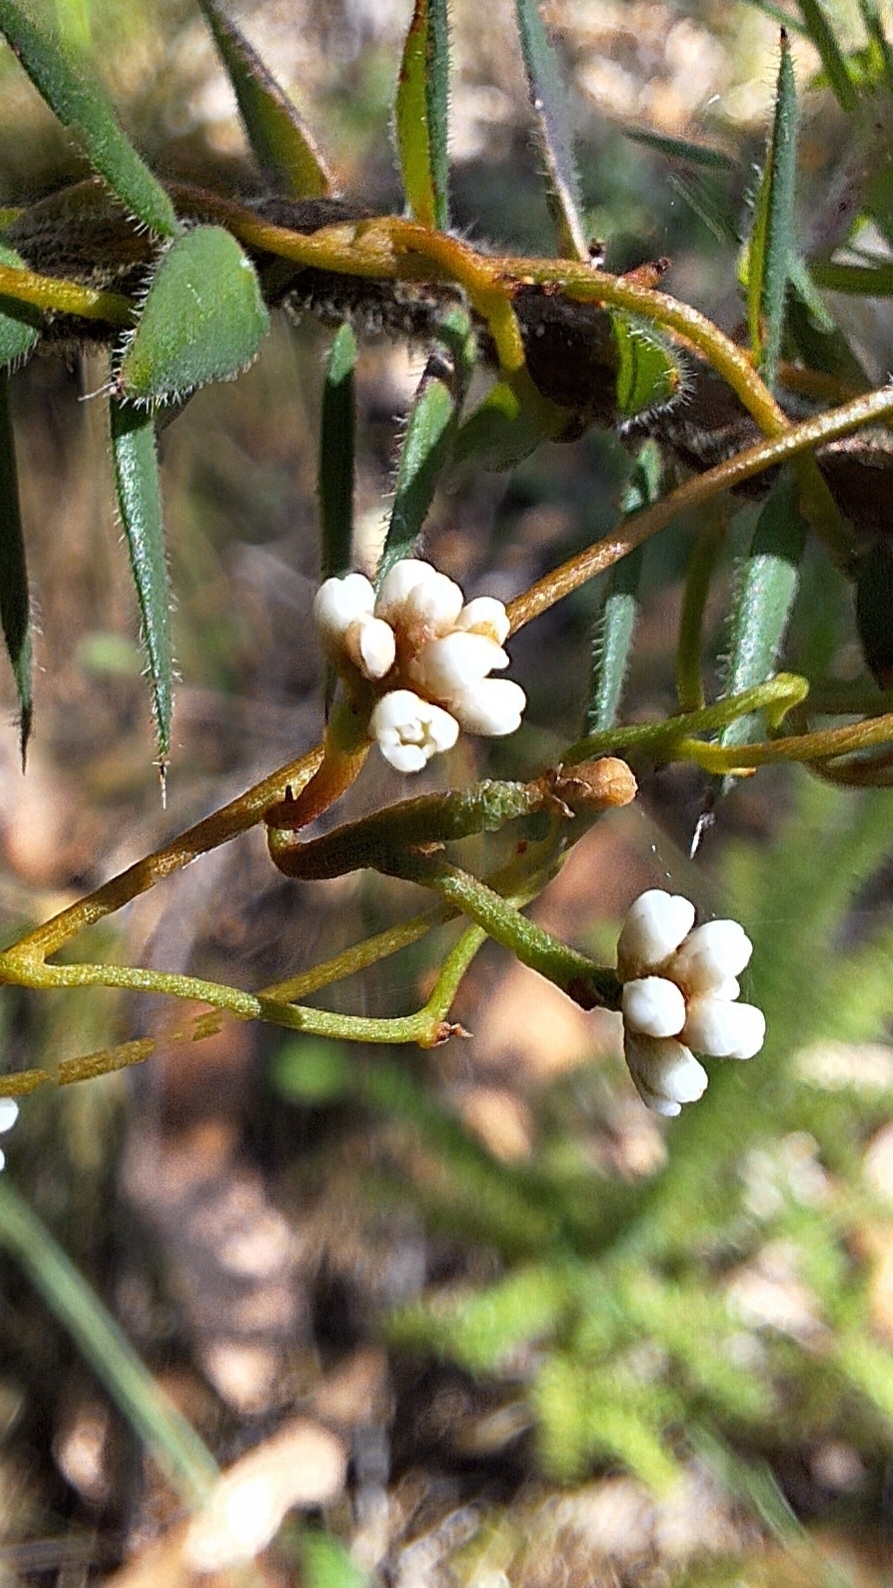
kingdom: Plantae
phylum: Tracheophyta
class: Magnoliopsida
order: Laurales
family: Lauraceae
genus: Cassytha
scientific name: Cassytha glabella
